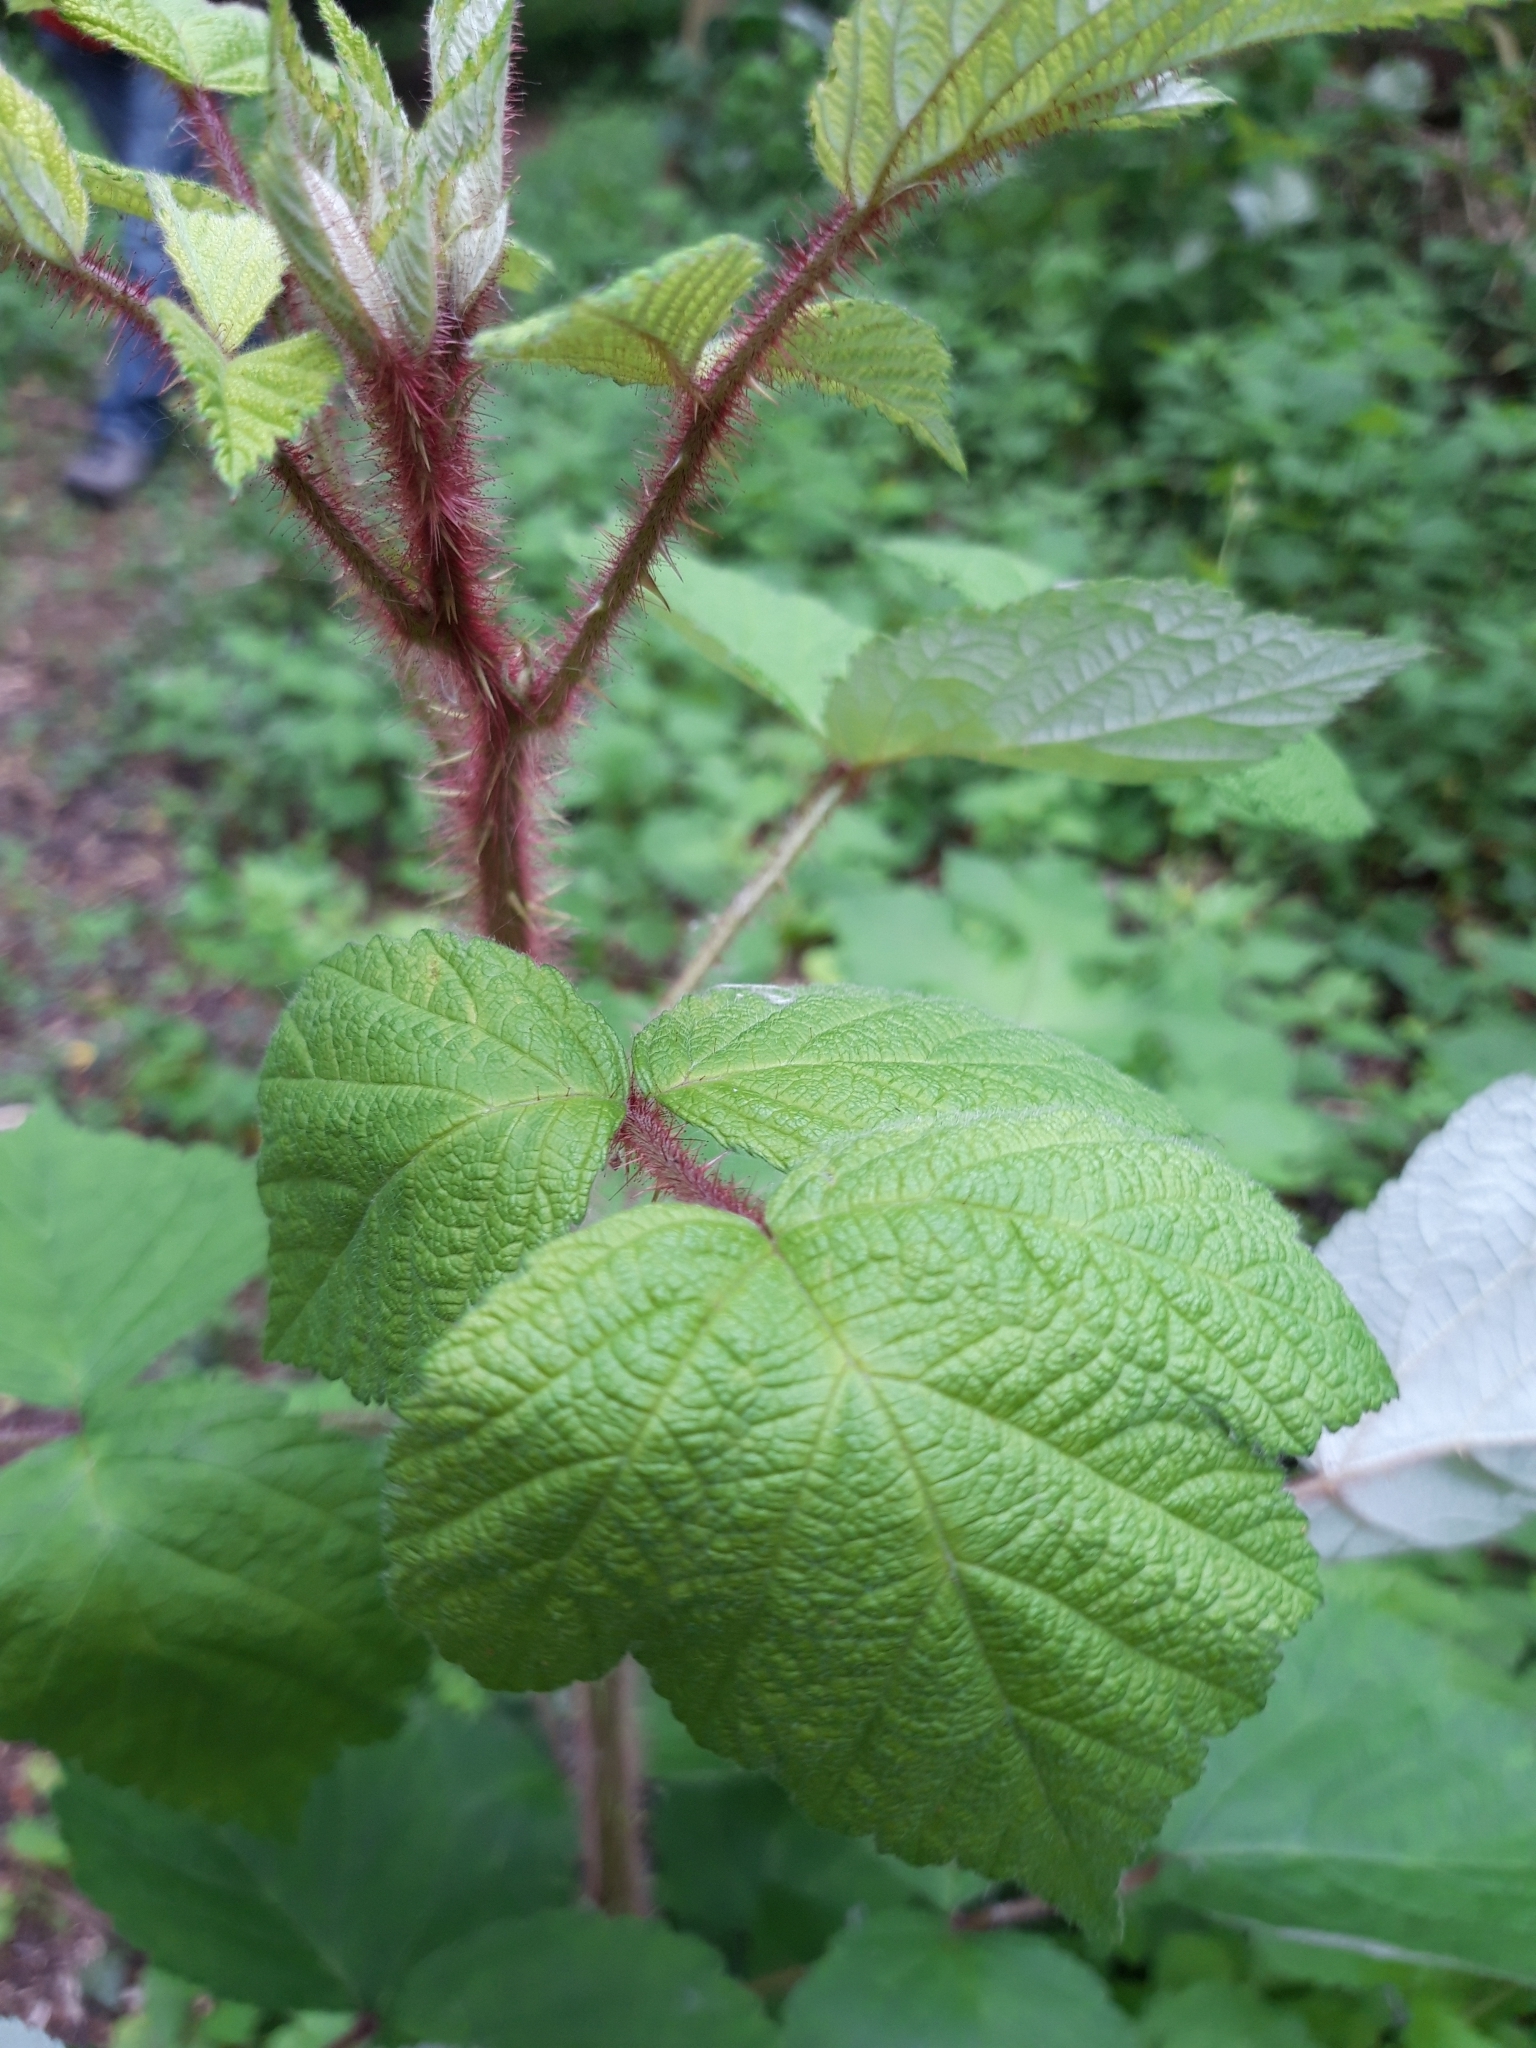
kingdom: Plantae
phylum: Tracheophyta
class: Magnoliopsida
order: Rosales
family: Rosaceae
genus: Rubus
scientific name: Rubus phoenicolasius
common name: Japanese wineberry
